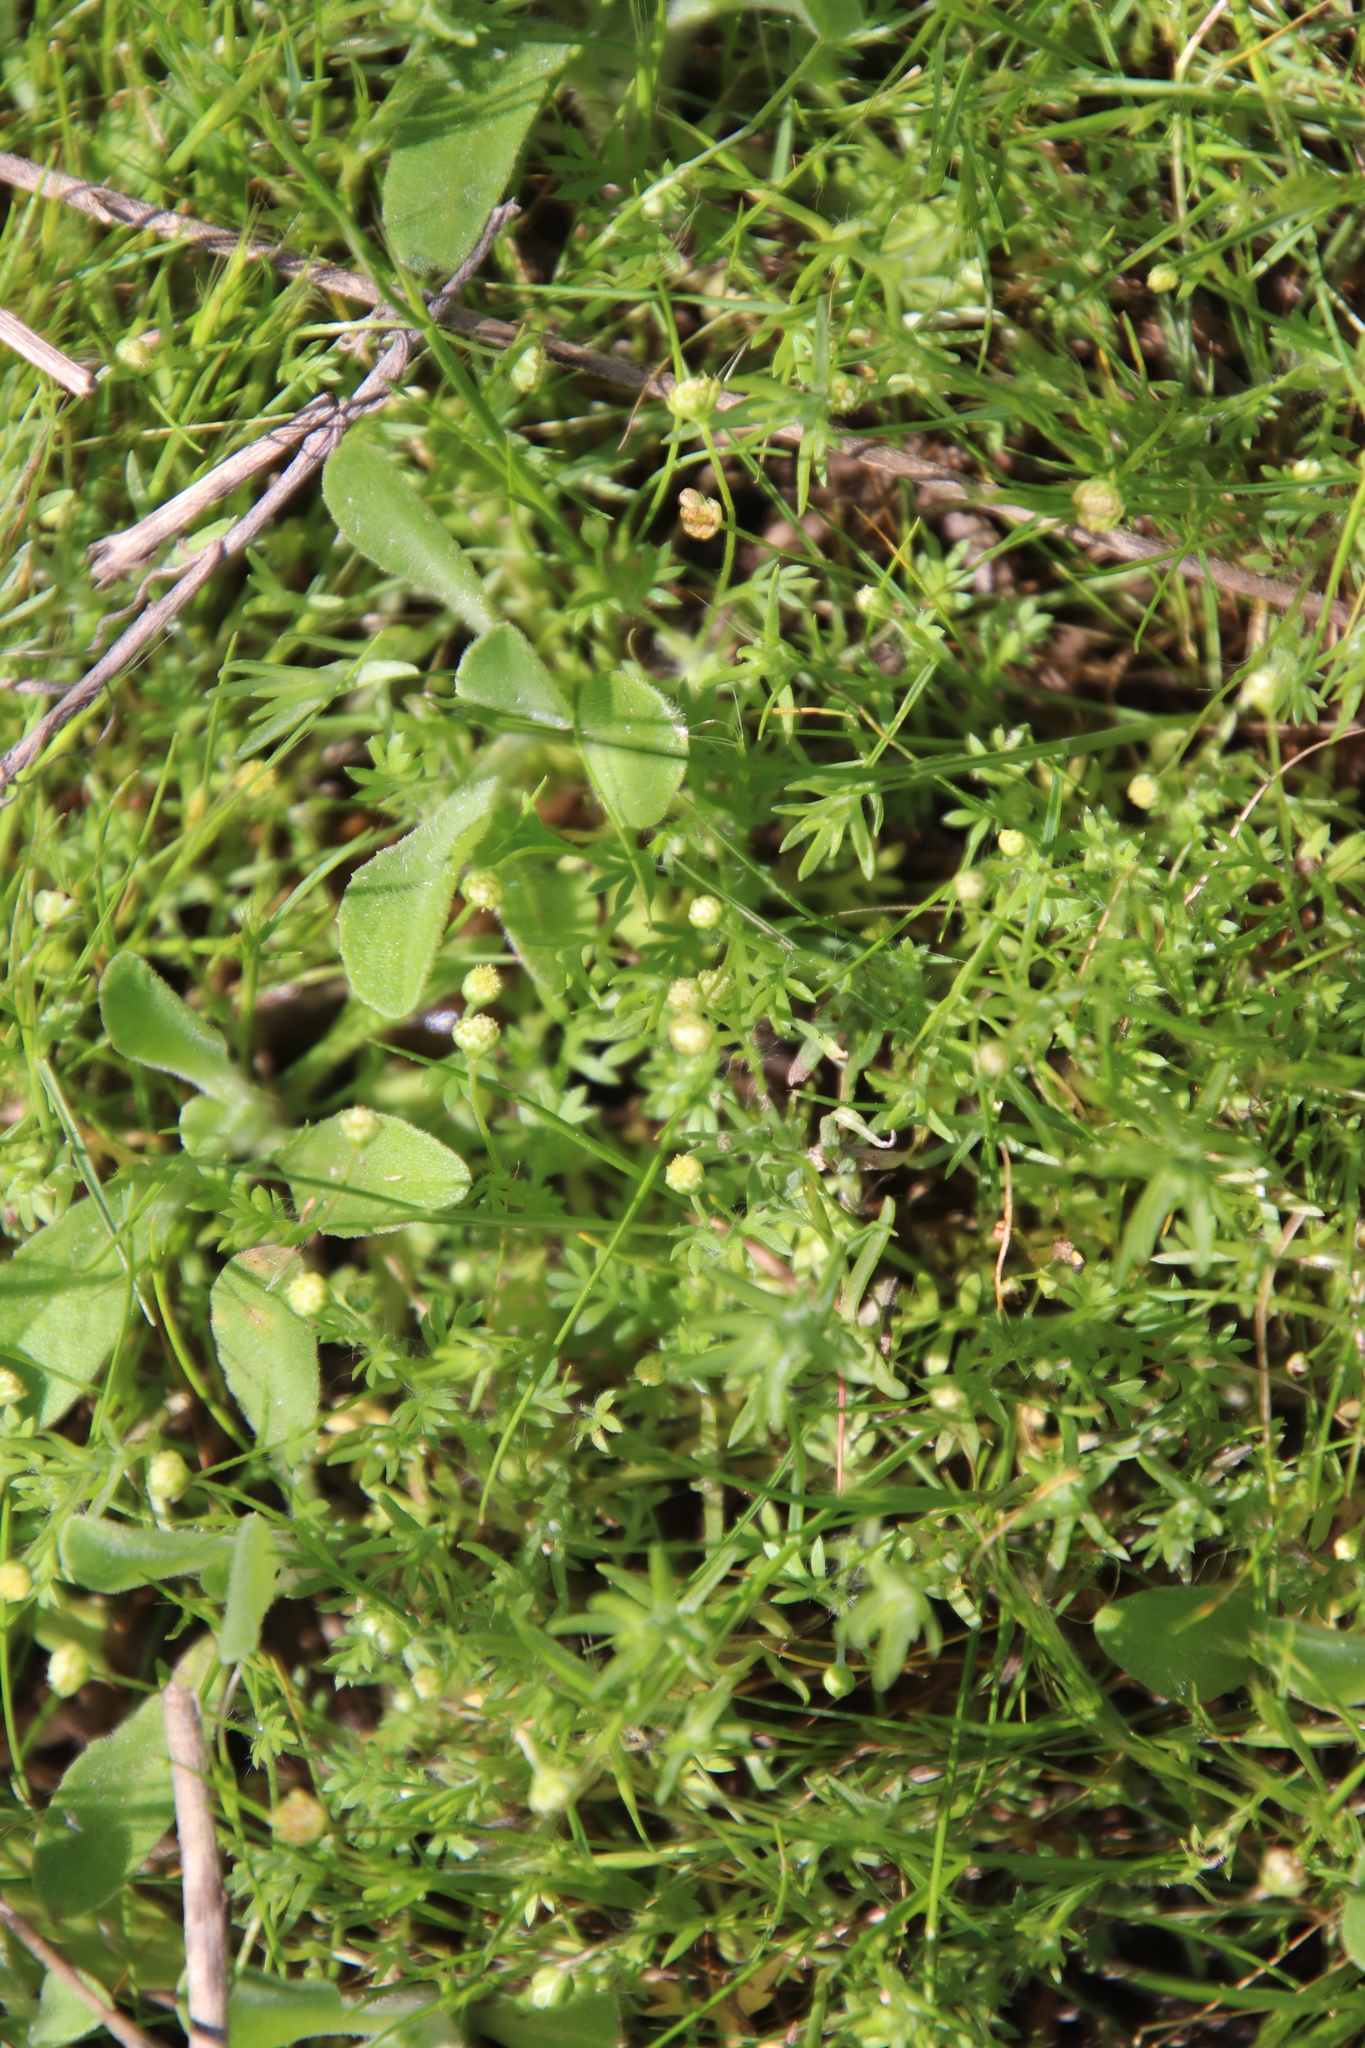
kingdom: Plantae
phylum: Tracheophyta
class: Magnoliopsida
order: Asterales
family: Asteraceae
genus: Cotula
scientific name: Cotula australis
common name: Australian waterbuttons
